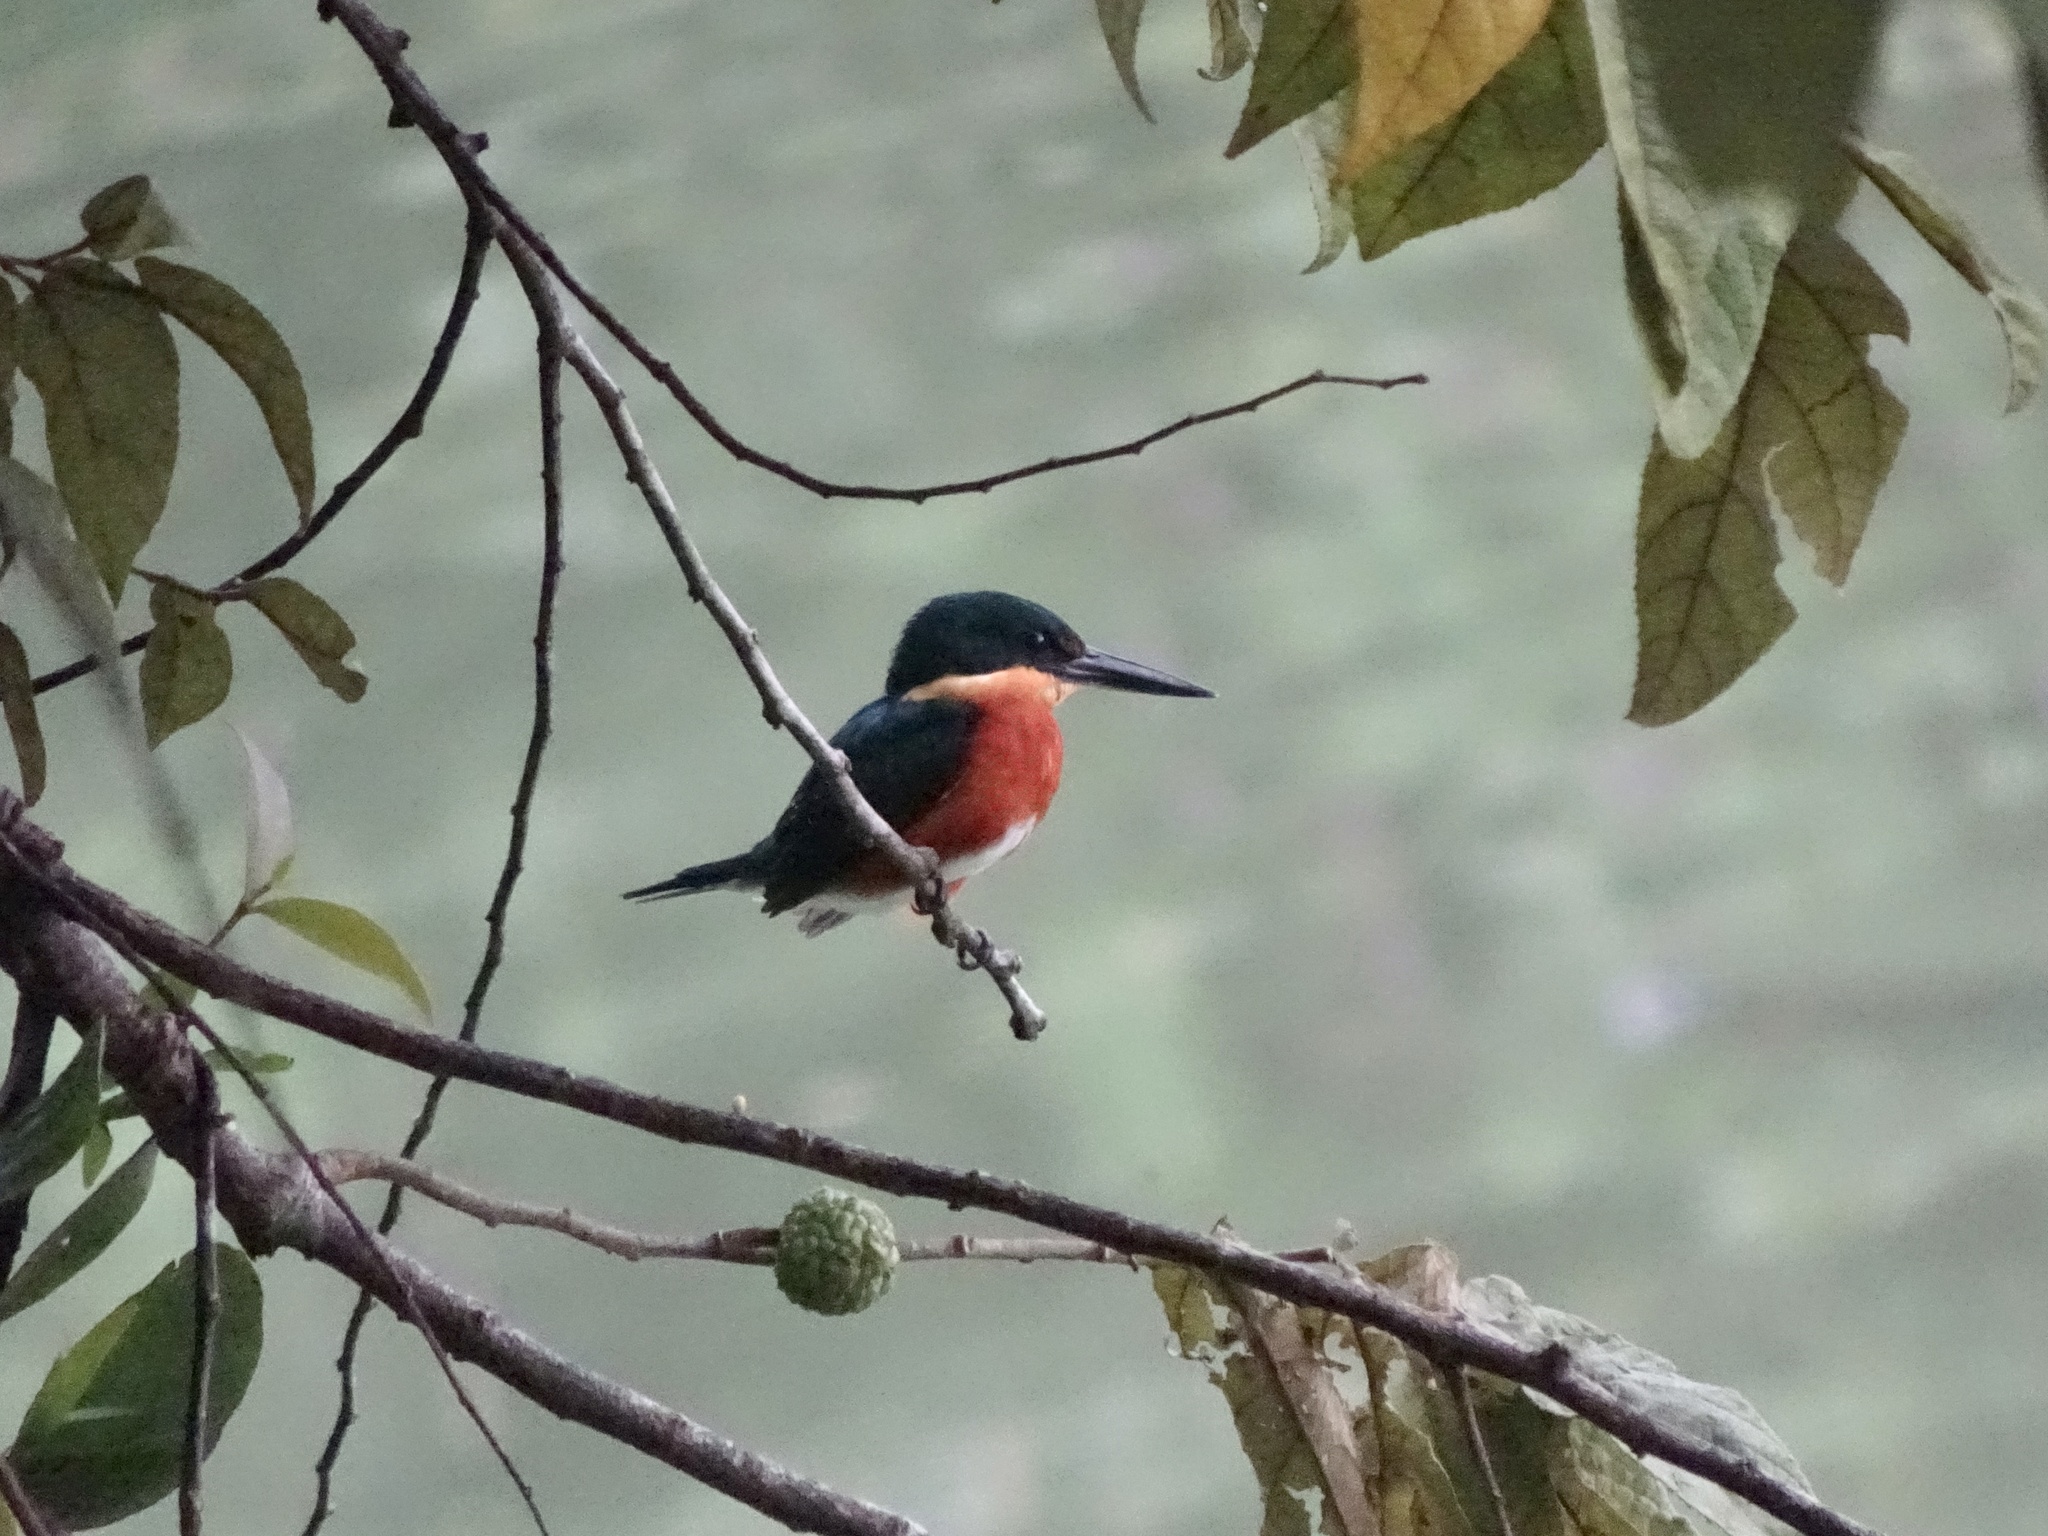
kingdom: Animalia
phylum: Chordata
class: Aves
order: Coraciiformes
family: Alcedinidae
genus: Chloroceryle
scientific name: Chloroceryle aenea
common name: American pygmy kingfisher
